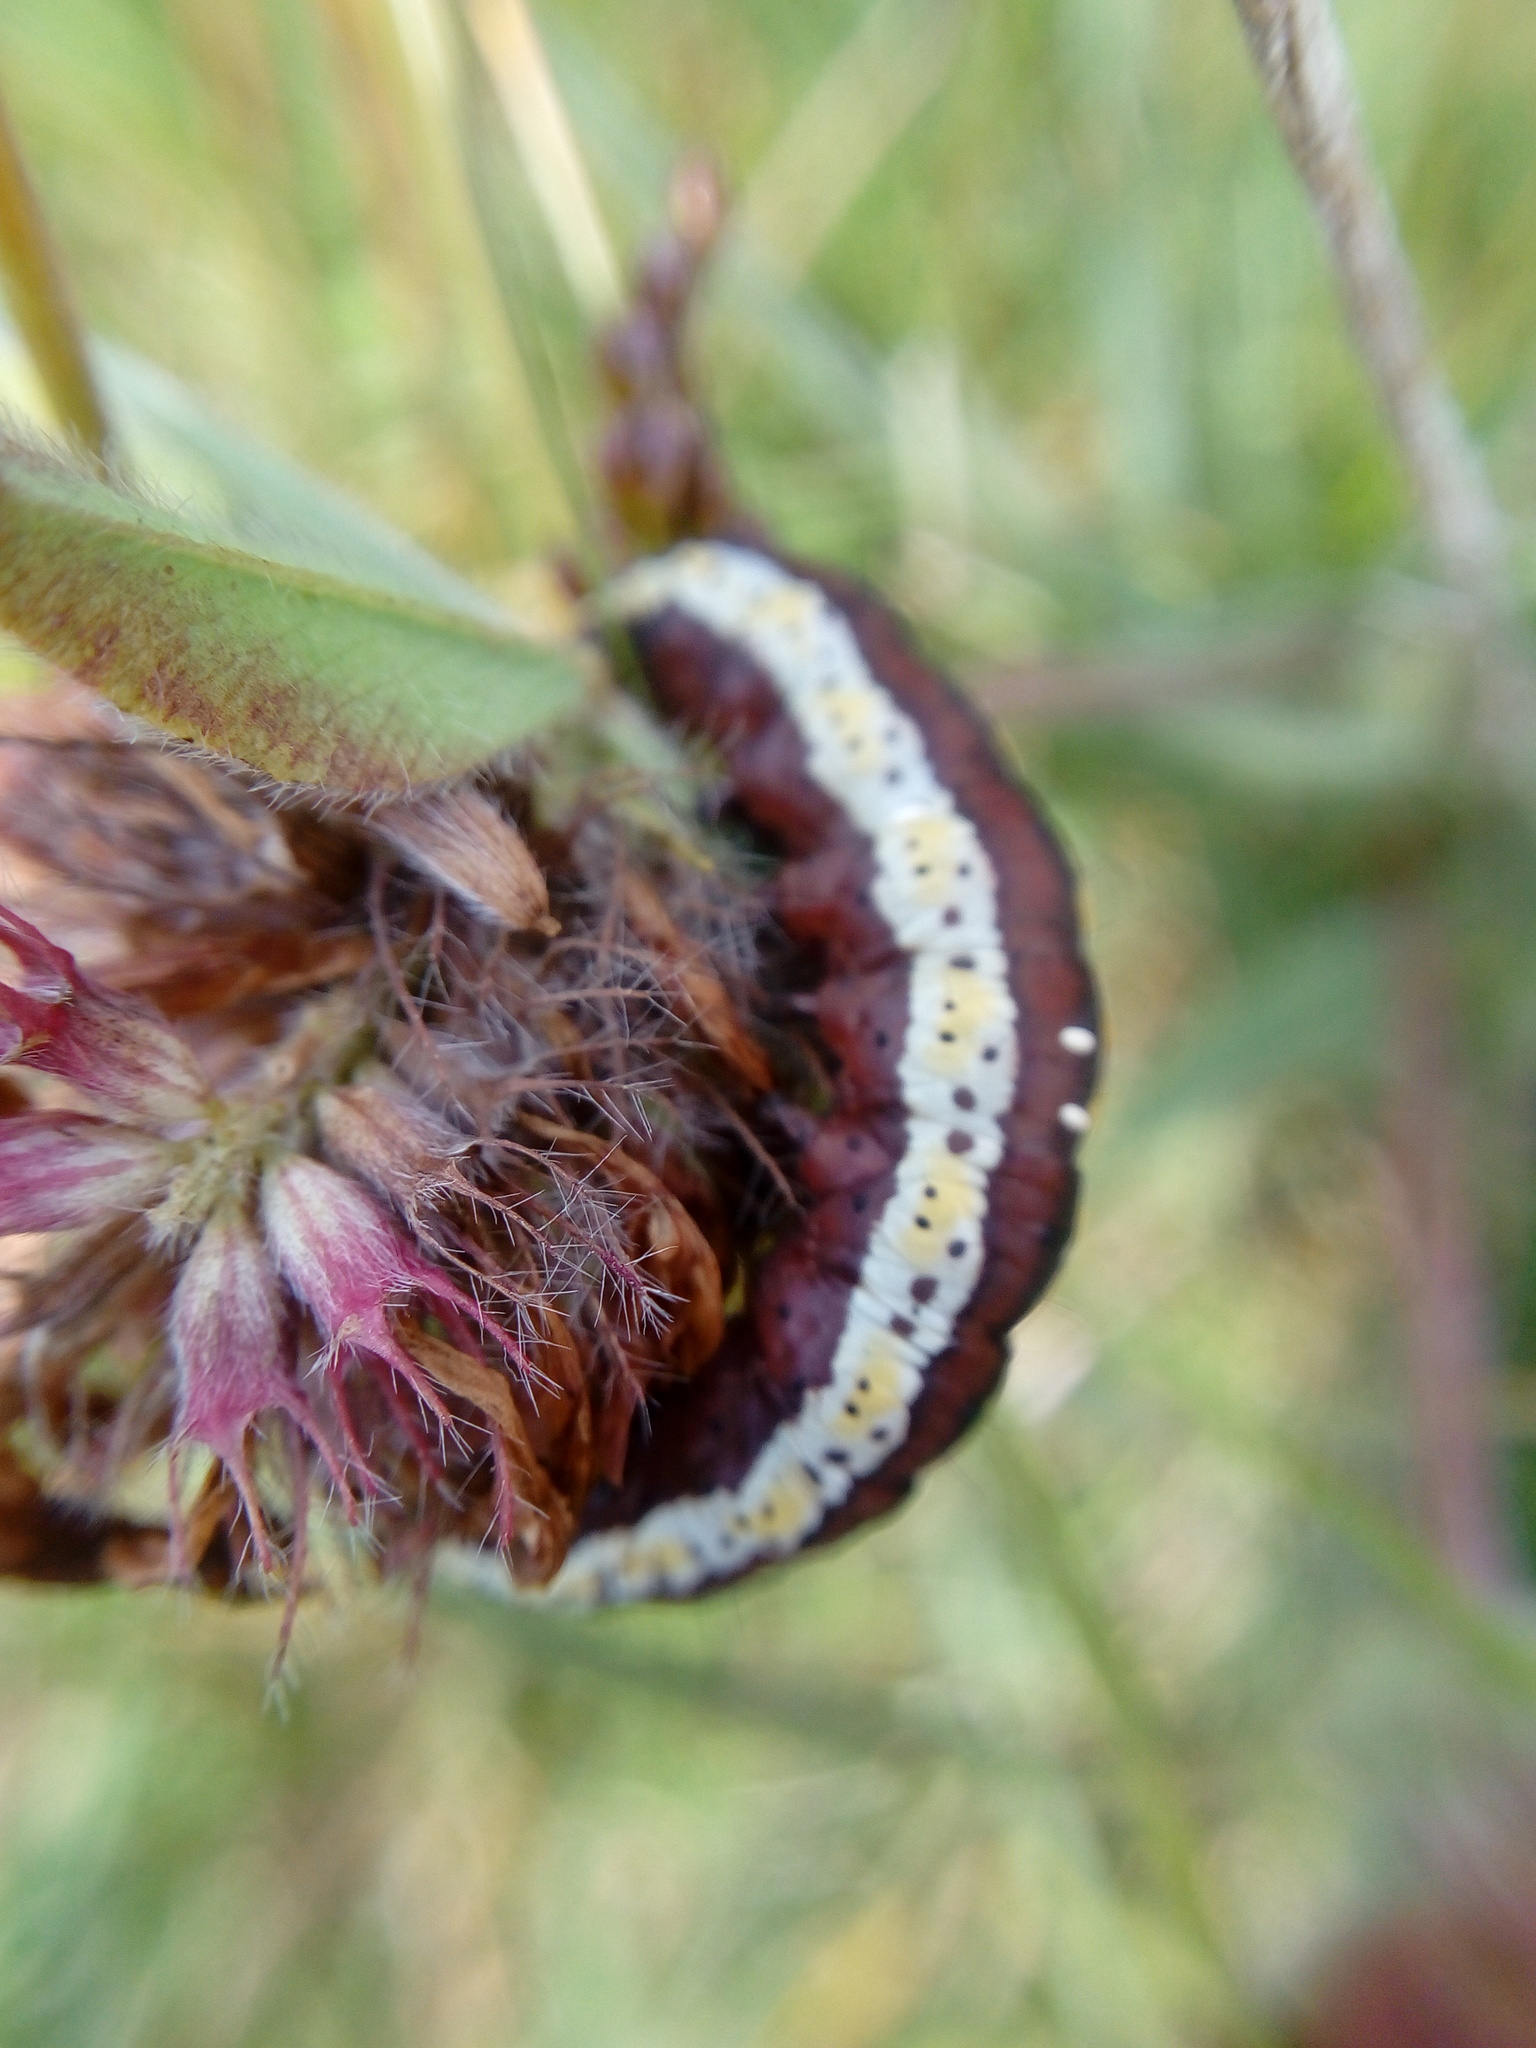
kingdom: Animalia
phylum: Arthropoda
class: Insecta
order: Lepidoptera
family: Noctuidae
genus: Cucullia
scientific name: Cucullia lucifuga
